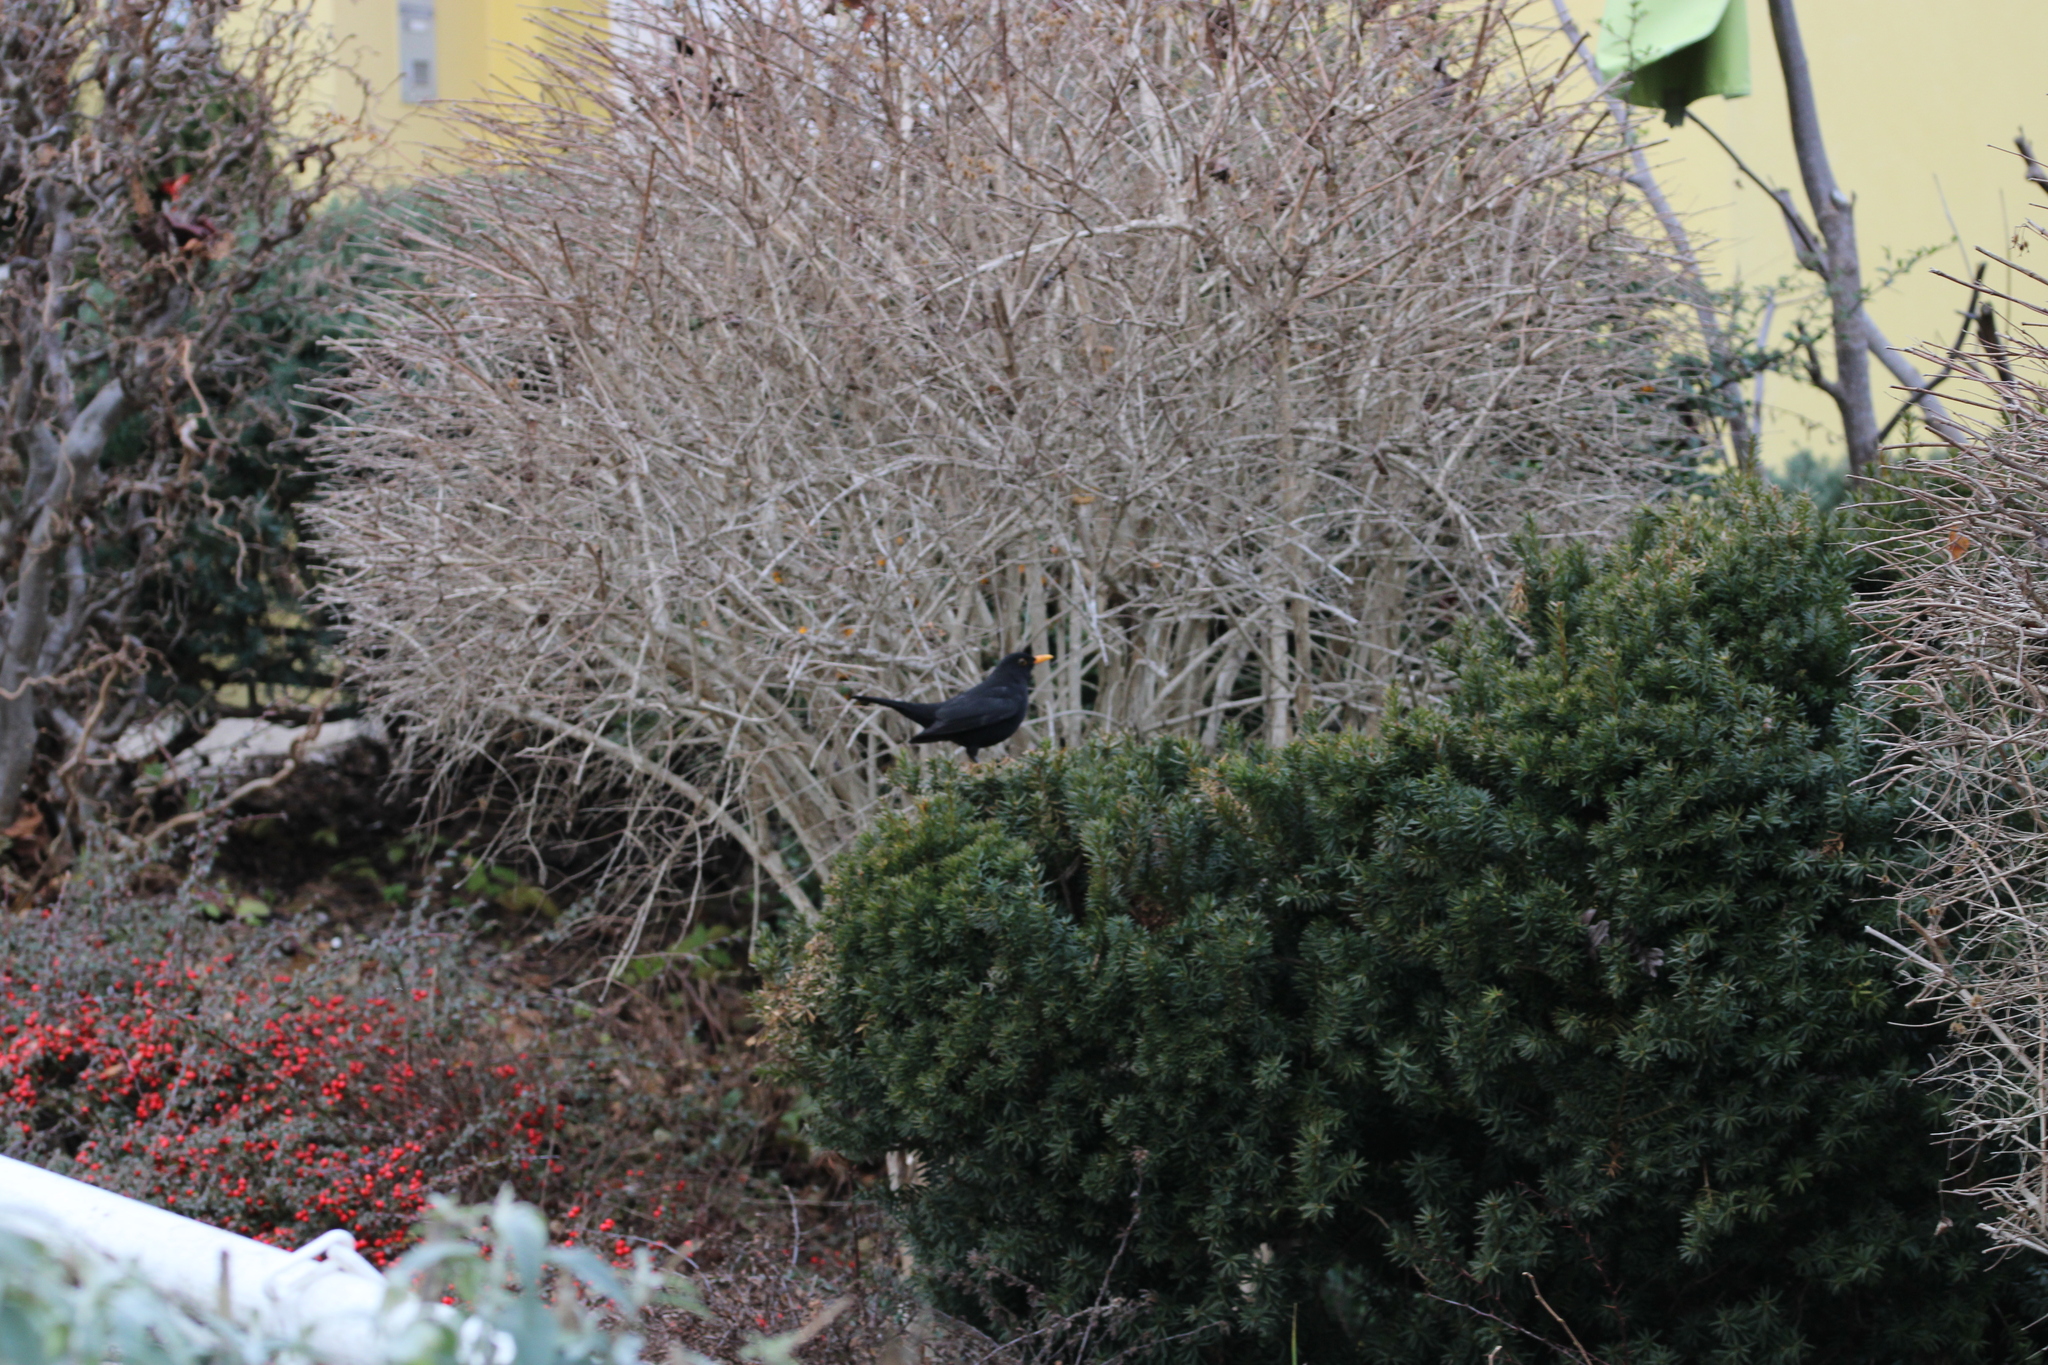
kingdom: Animalia
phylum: Chordata
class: Aves
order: Passeriformes
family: Turdidae
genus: Turdus
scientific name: Turdus merula
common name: Common blackbird
